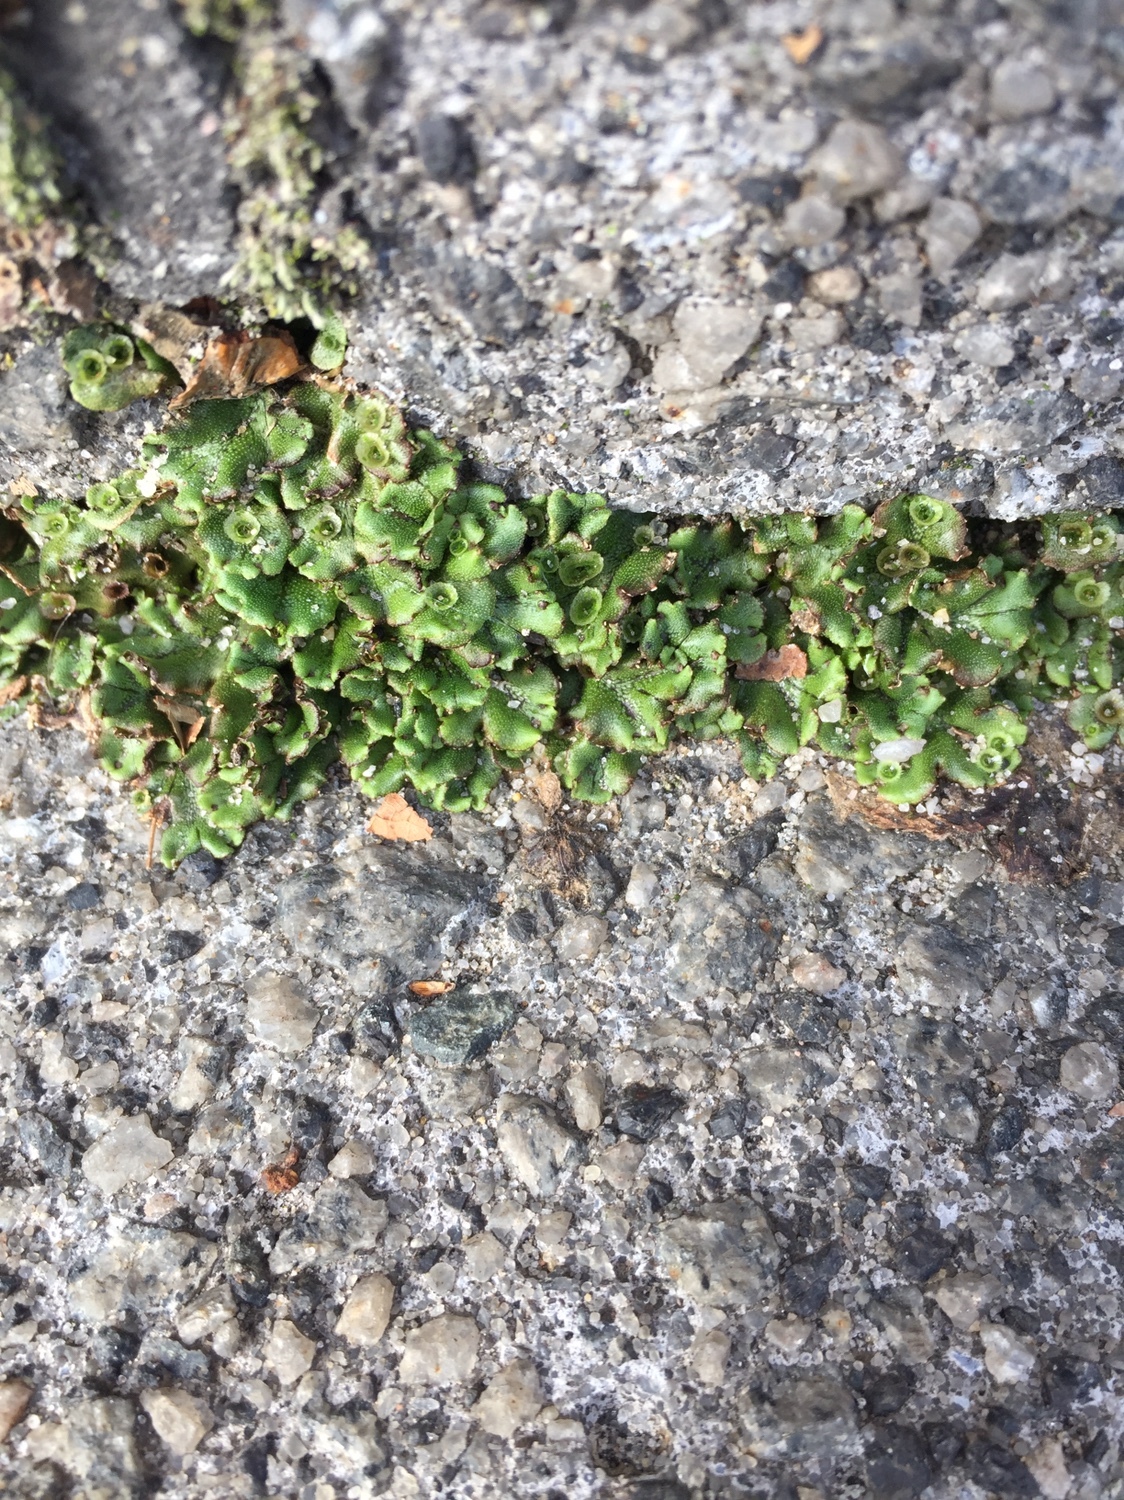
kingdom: Plantae
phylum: Marchantiophyta
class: Marchantiopsida
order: Marchantiales
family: Marchantiaceae
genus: Marchantia
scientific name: Marchantia polymorpha
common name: Common liverwort
